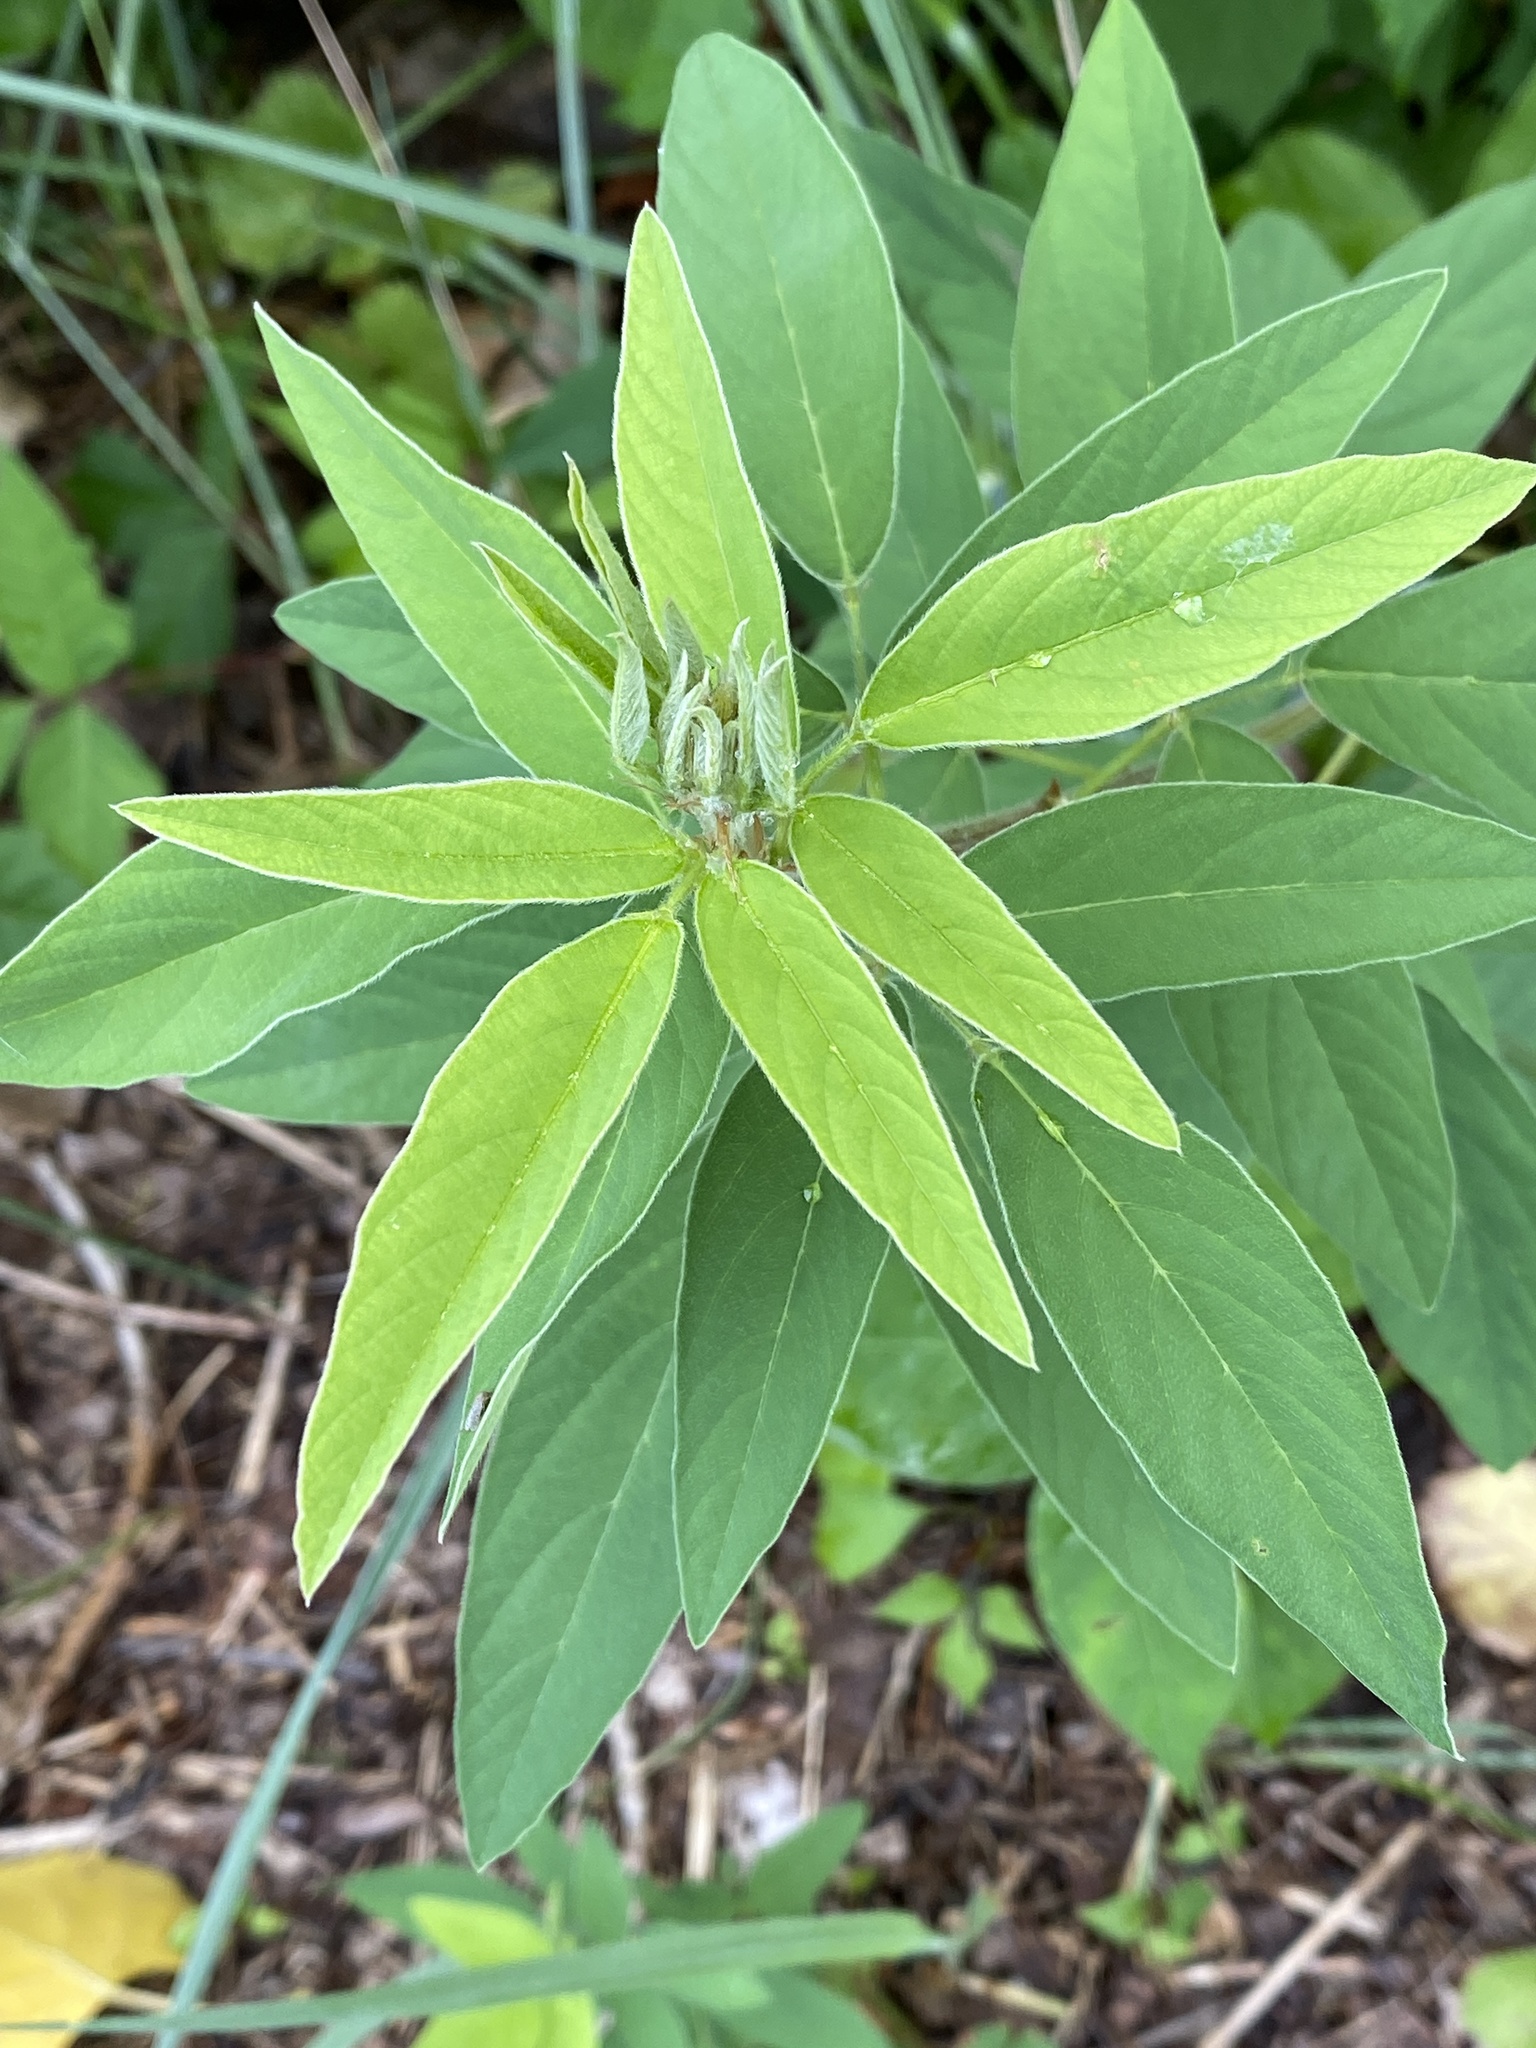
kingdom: Plantae
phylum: Tracheophyta
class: Magnoliopsida
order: Fabales
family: Fabaceae
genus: Desmodium
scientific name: Desmodium canadense
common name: Canada tick-trefoil
